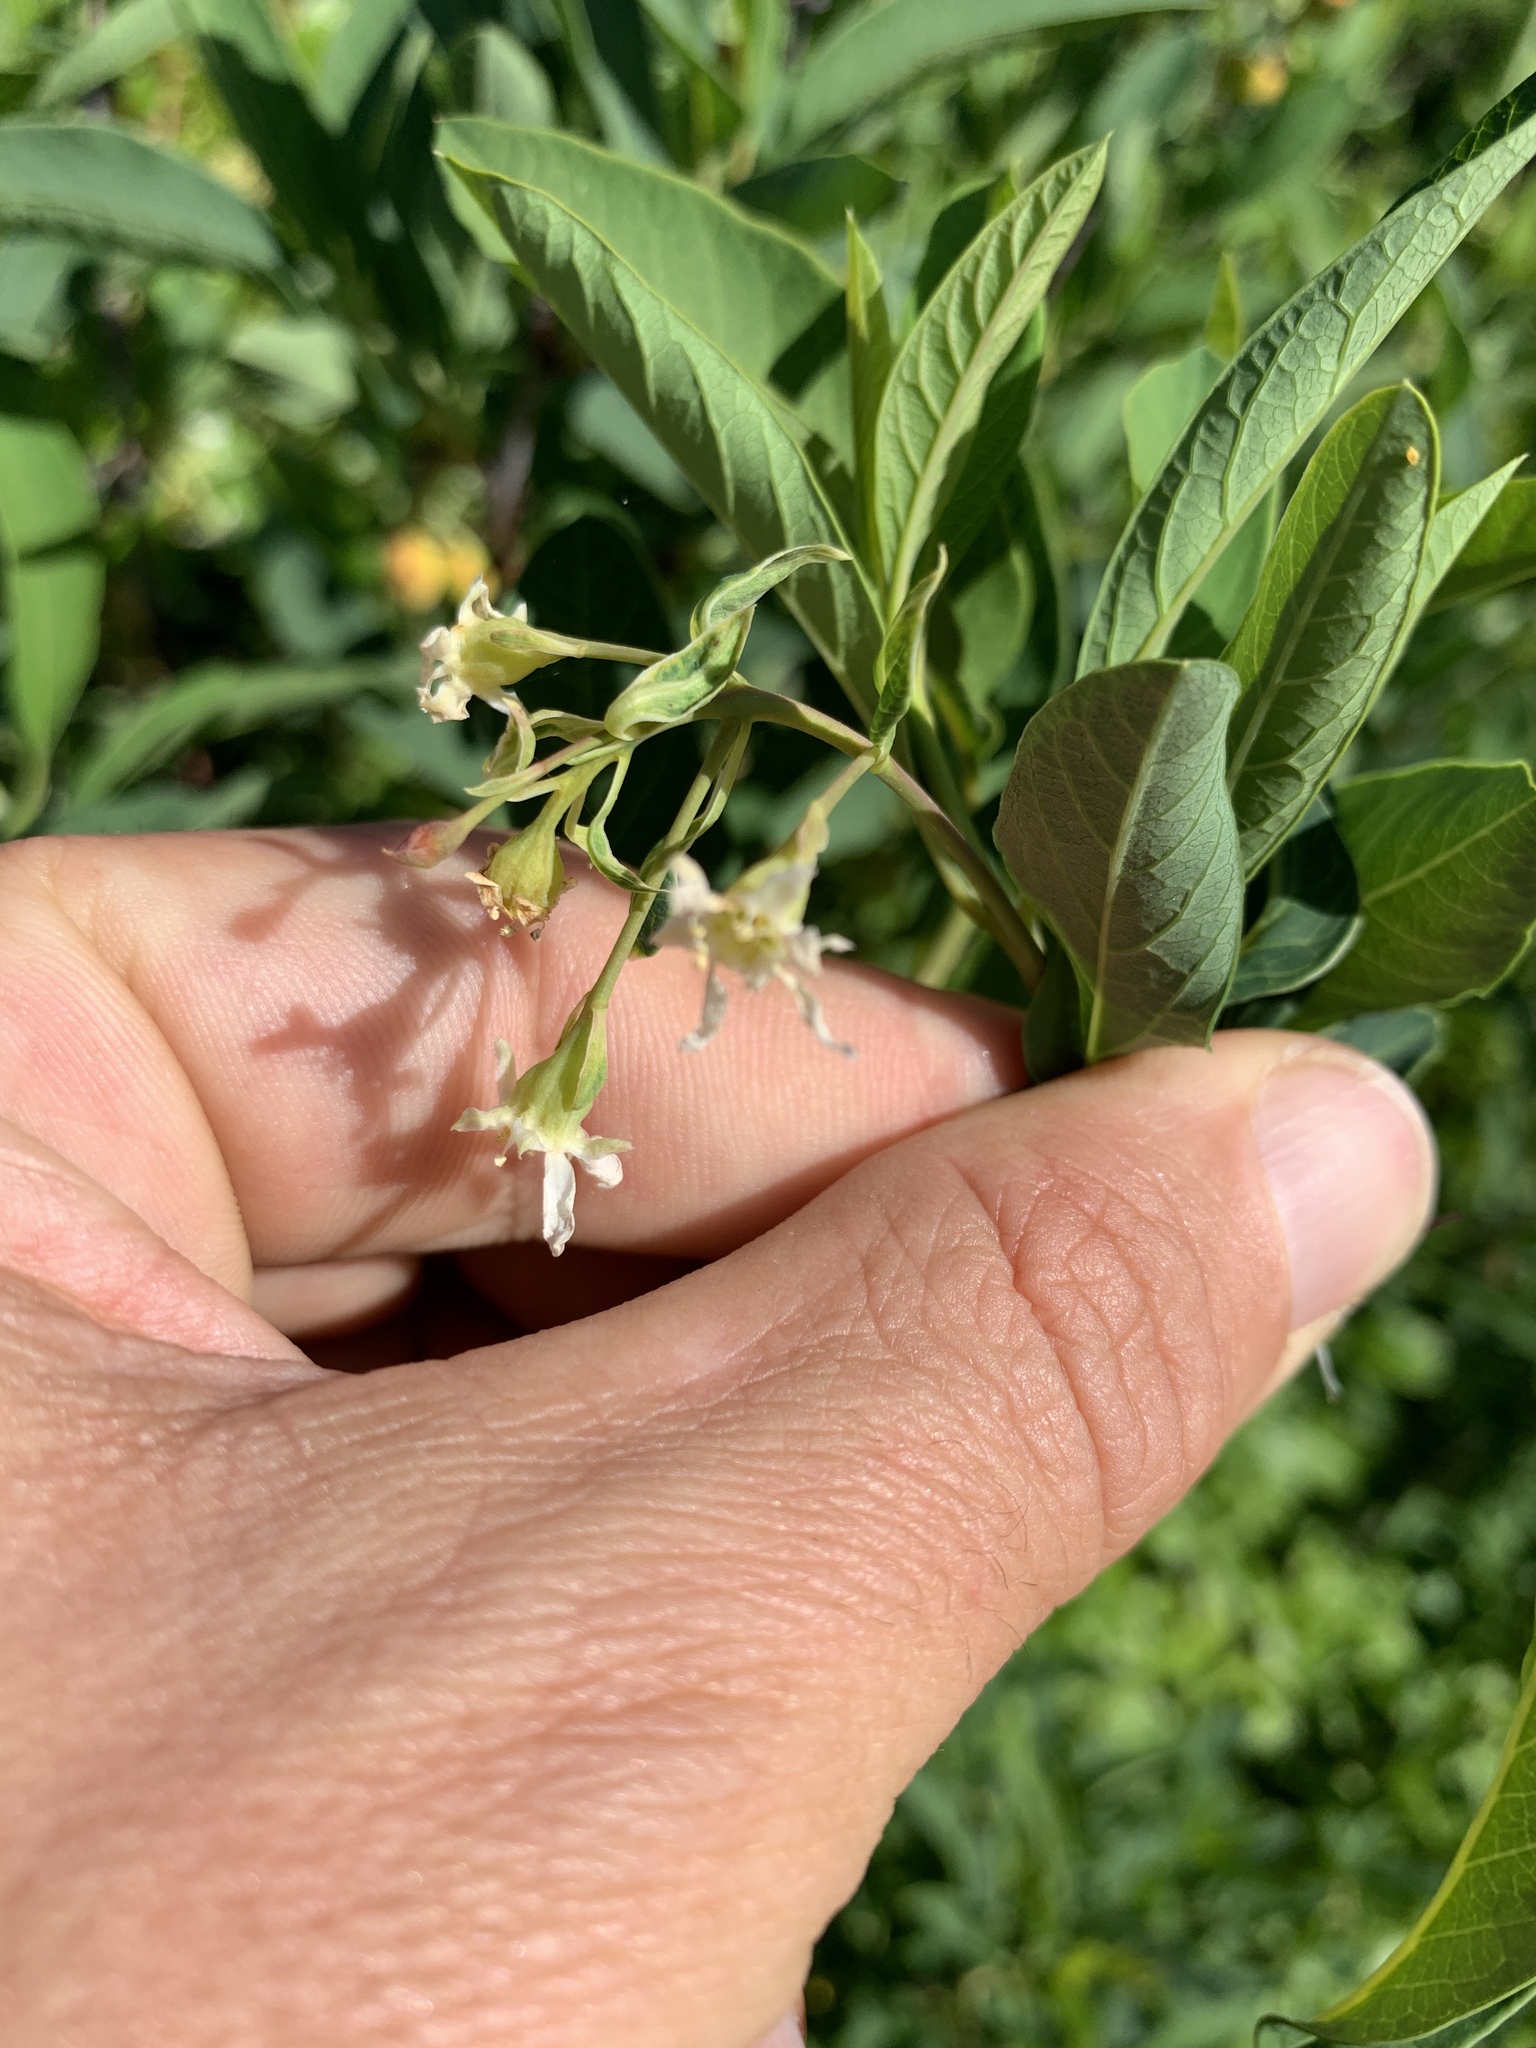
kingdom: Plantae
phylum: Tracheophyta
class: Magnoliopsida
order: Rosales
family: Rosaceae
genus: Oemleria
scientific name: Oemleria cerasiformis
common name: Osoberry
